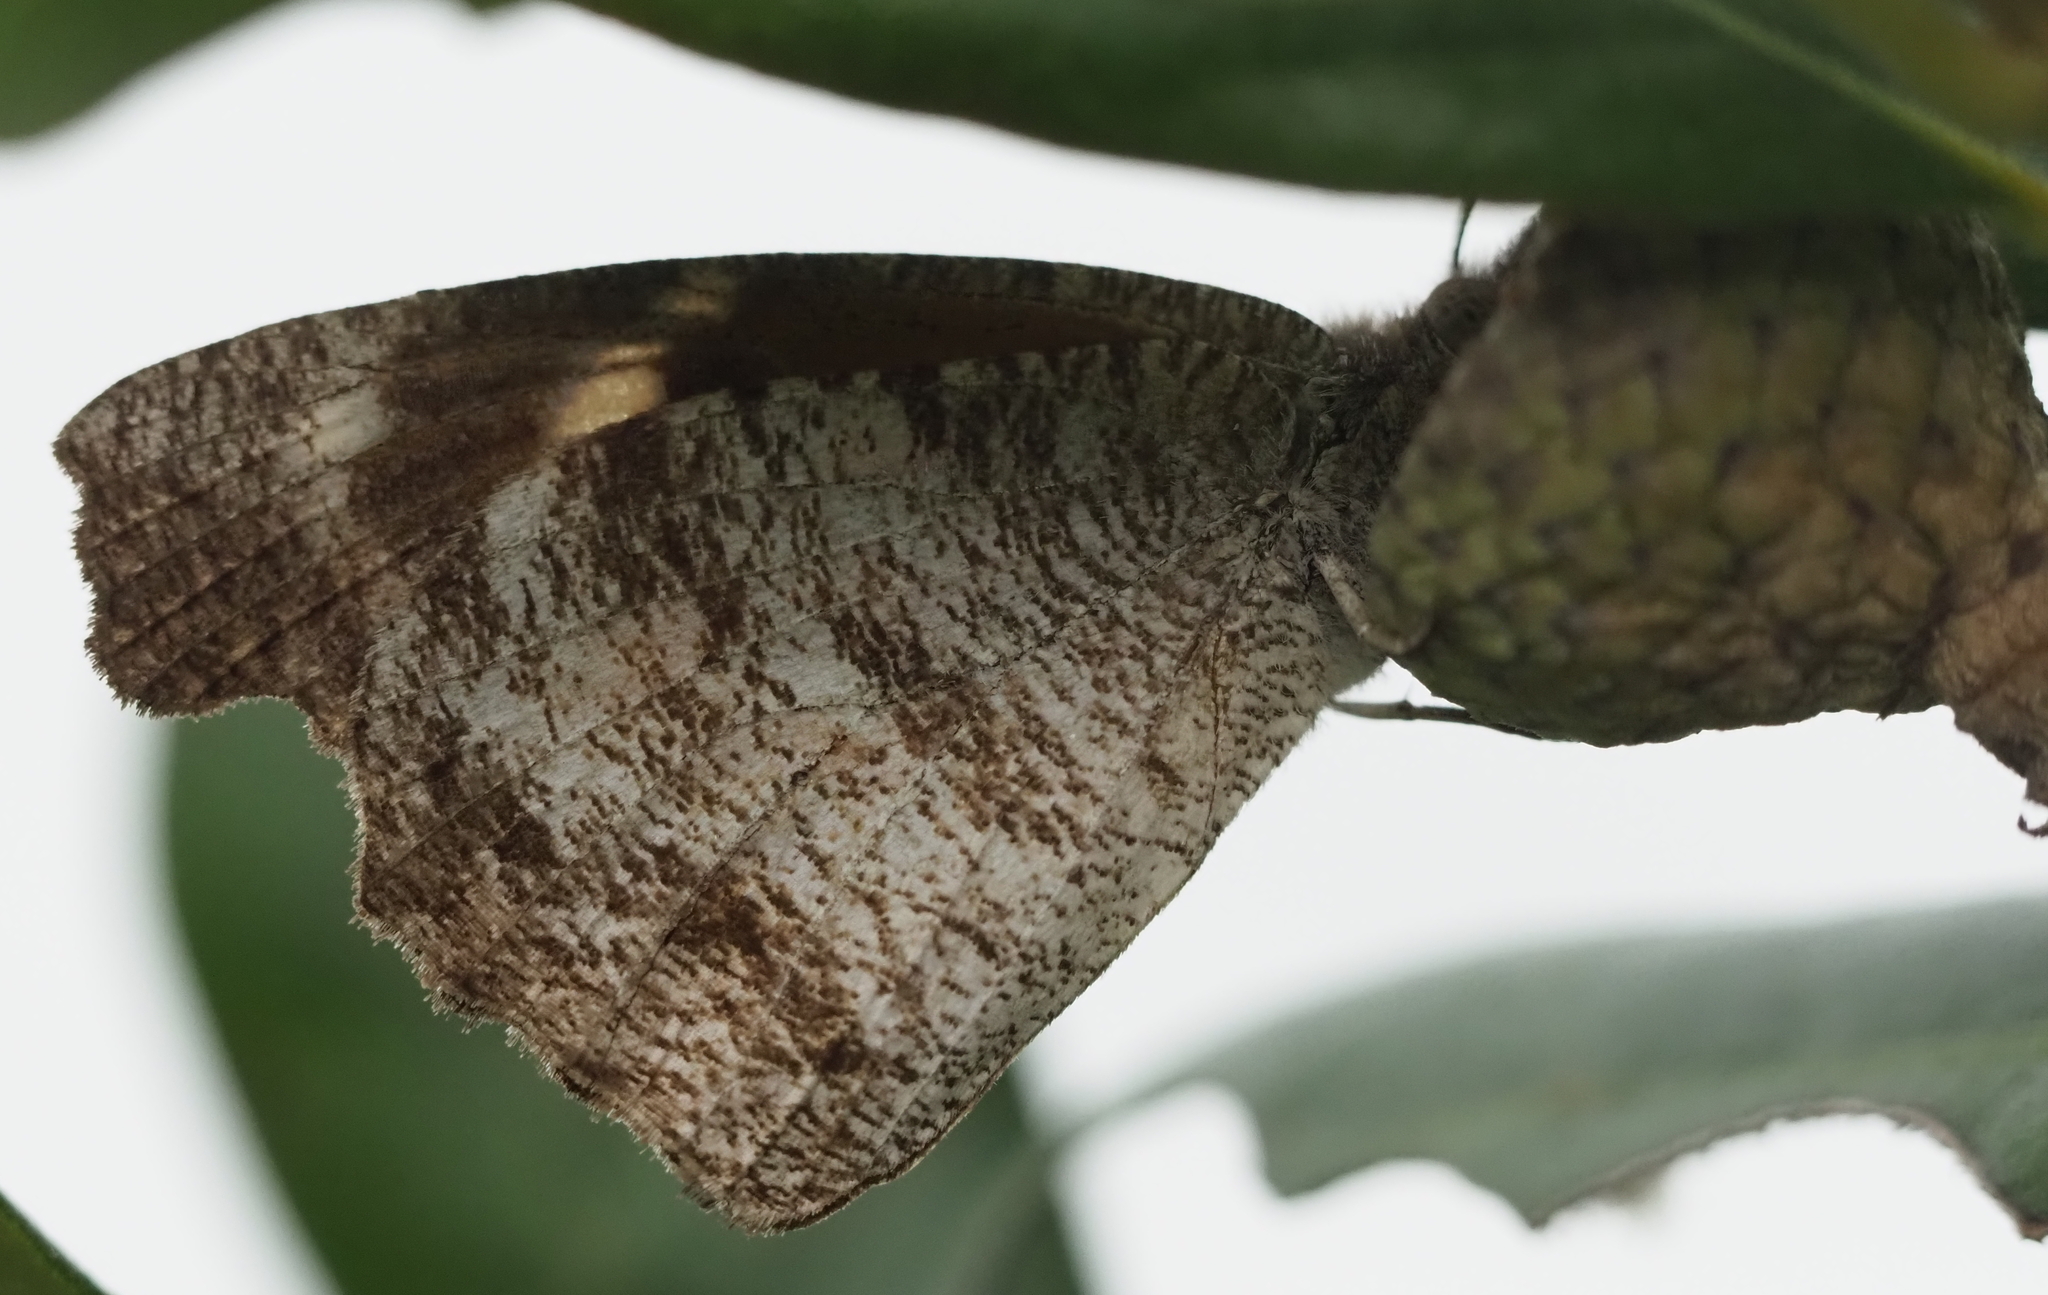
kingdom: Animalia
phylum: Arthropoda
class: Insecta
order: Lepidoptera
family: Nymphalidae
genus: Libytheana
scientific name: Libytheana carinenta
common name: American snout
